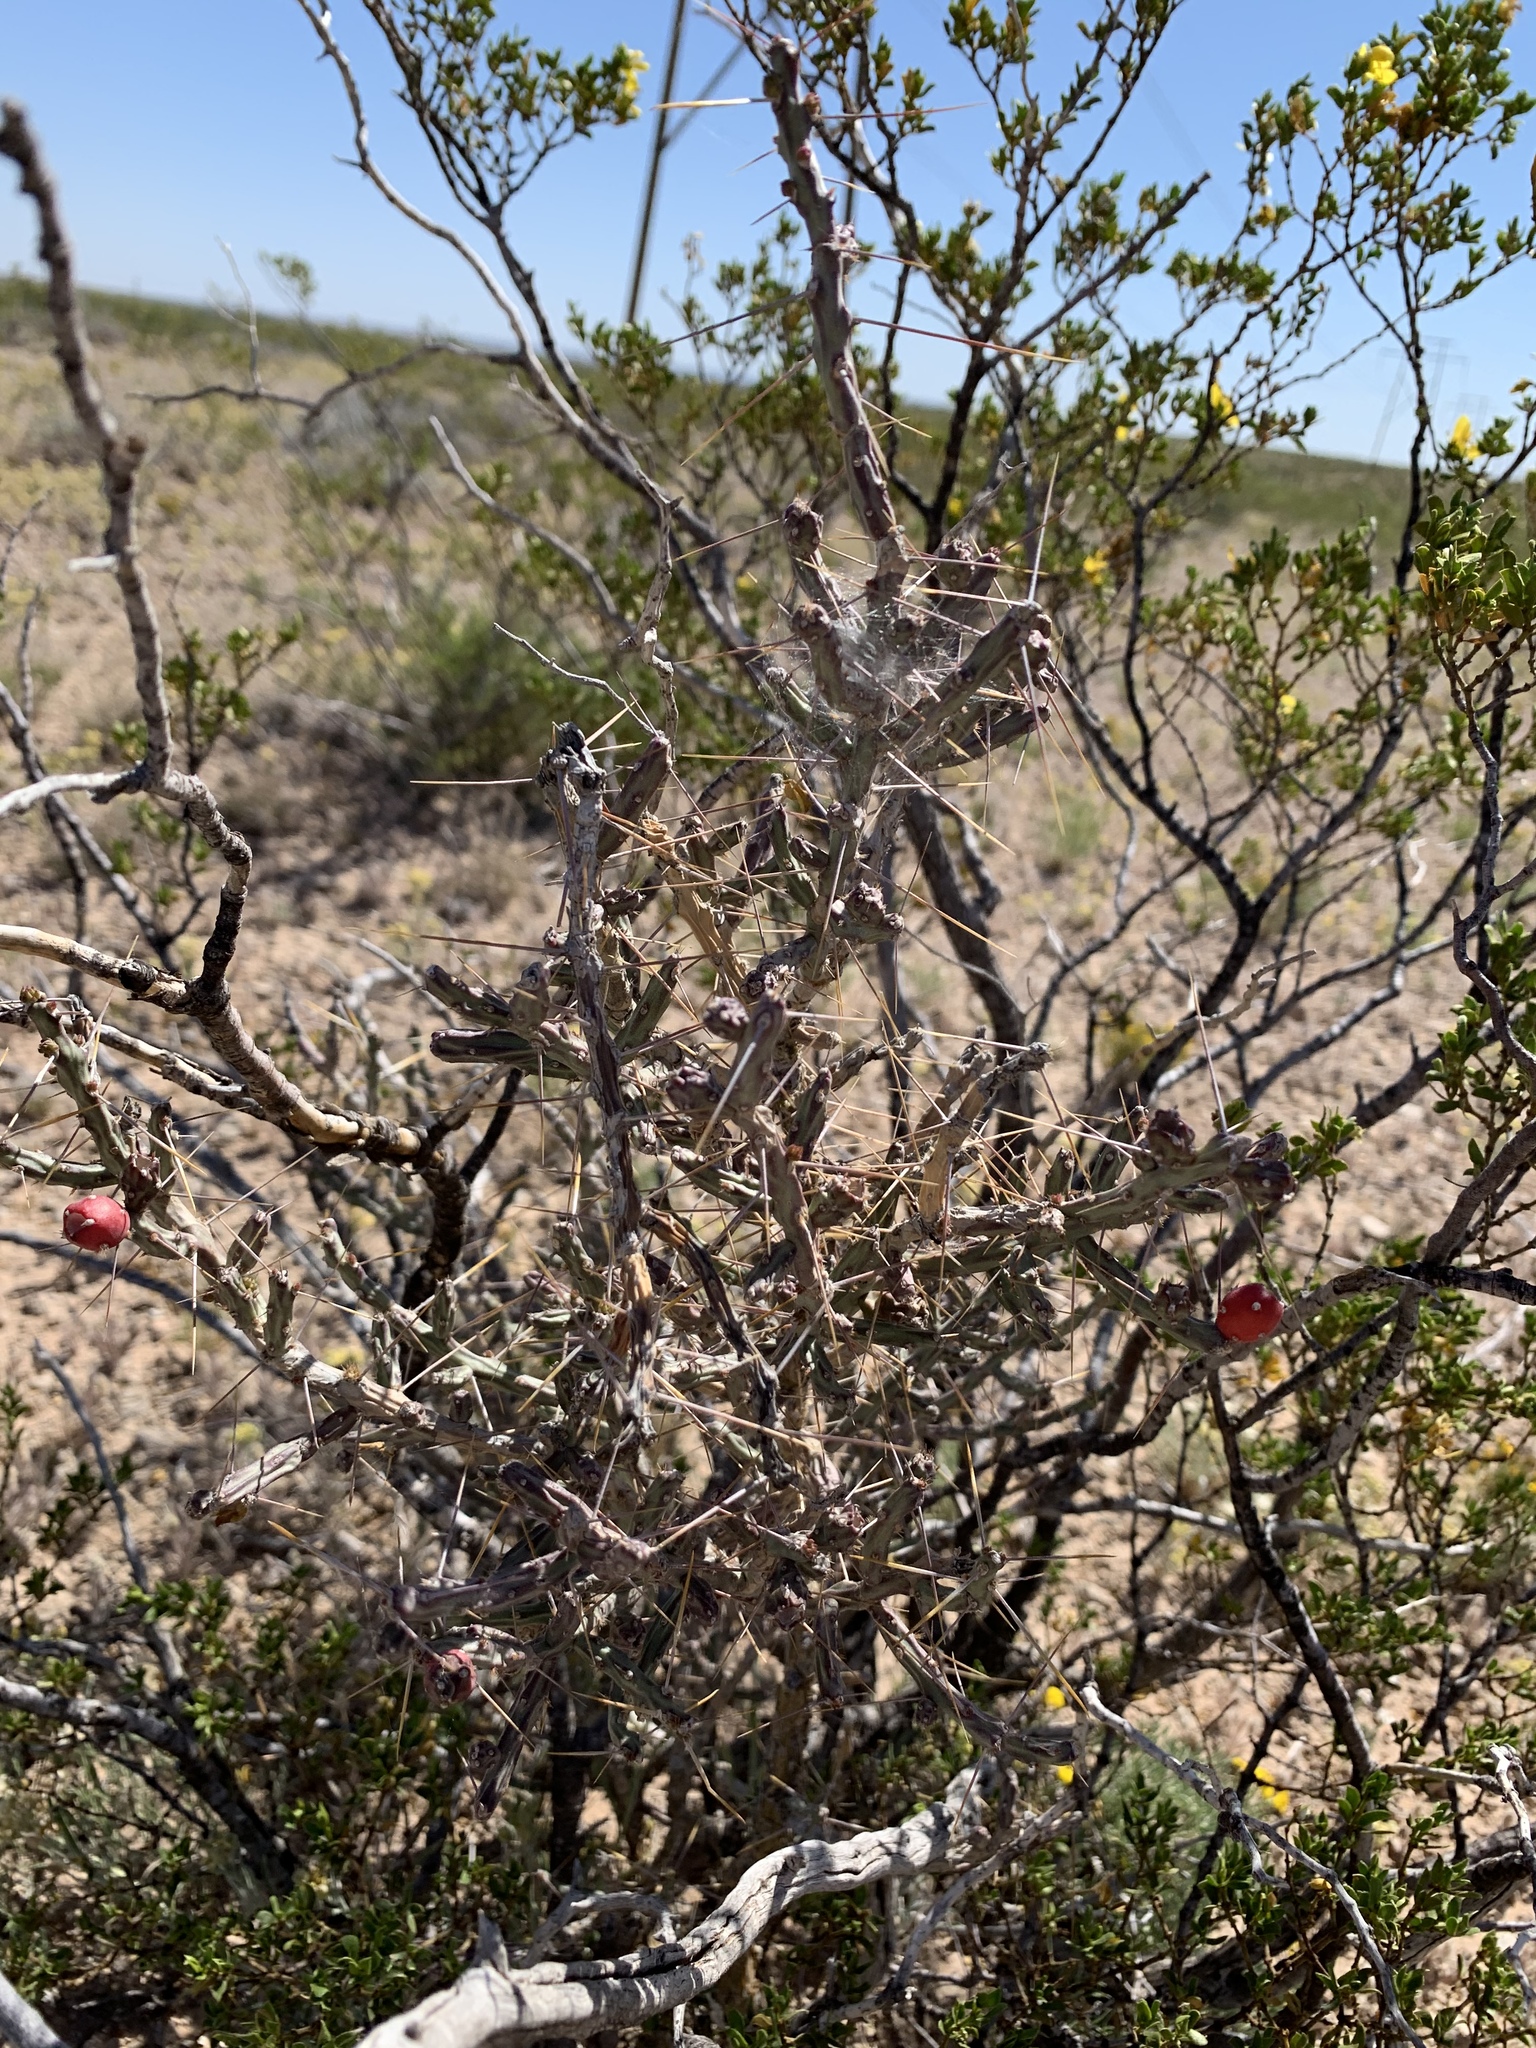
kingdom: Plantae
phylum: Tracheophyta
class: Magnoliopsida
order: Caryophyllales
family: Cactaceae
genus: Cylindropuntia
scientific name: Cylindropuntia leptocaulis
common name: Christmas cactus
